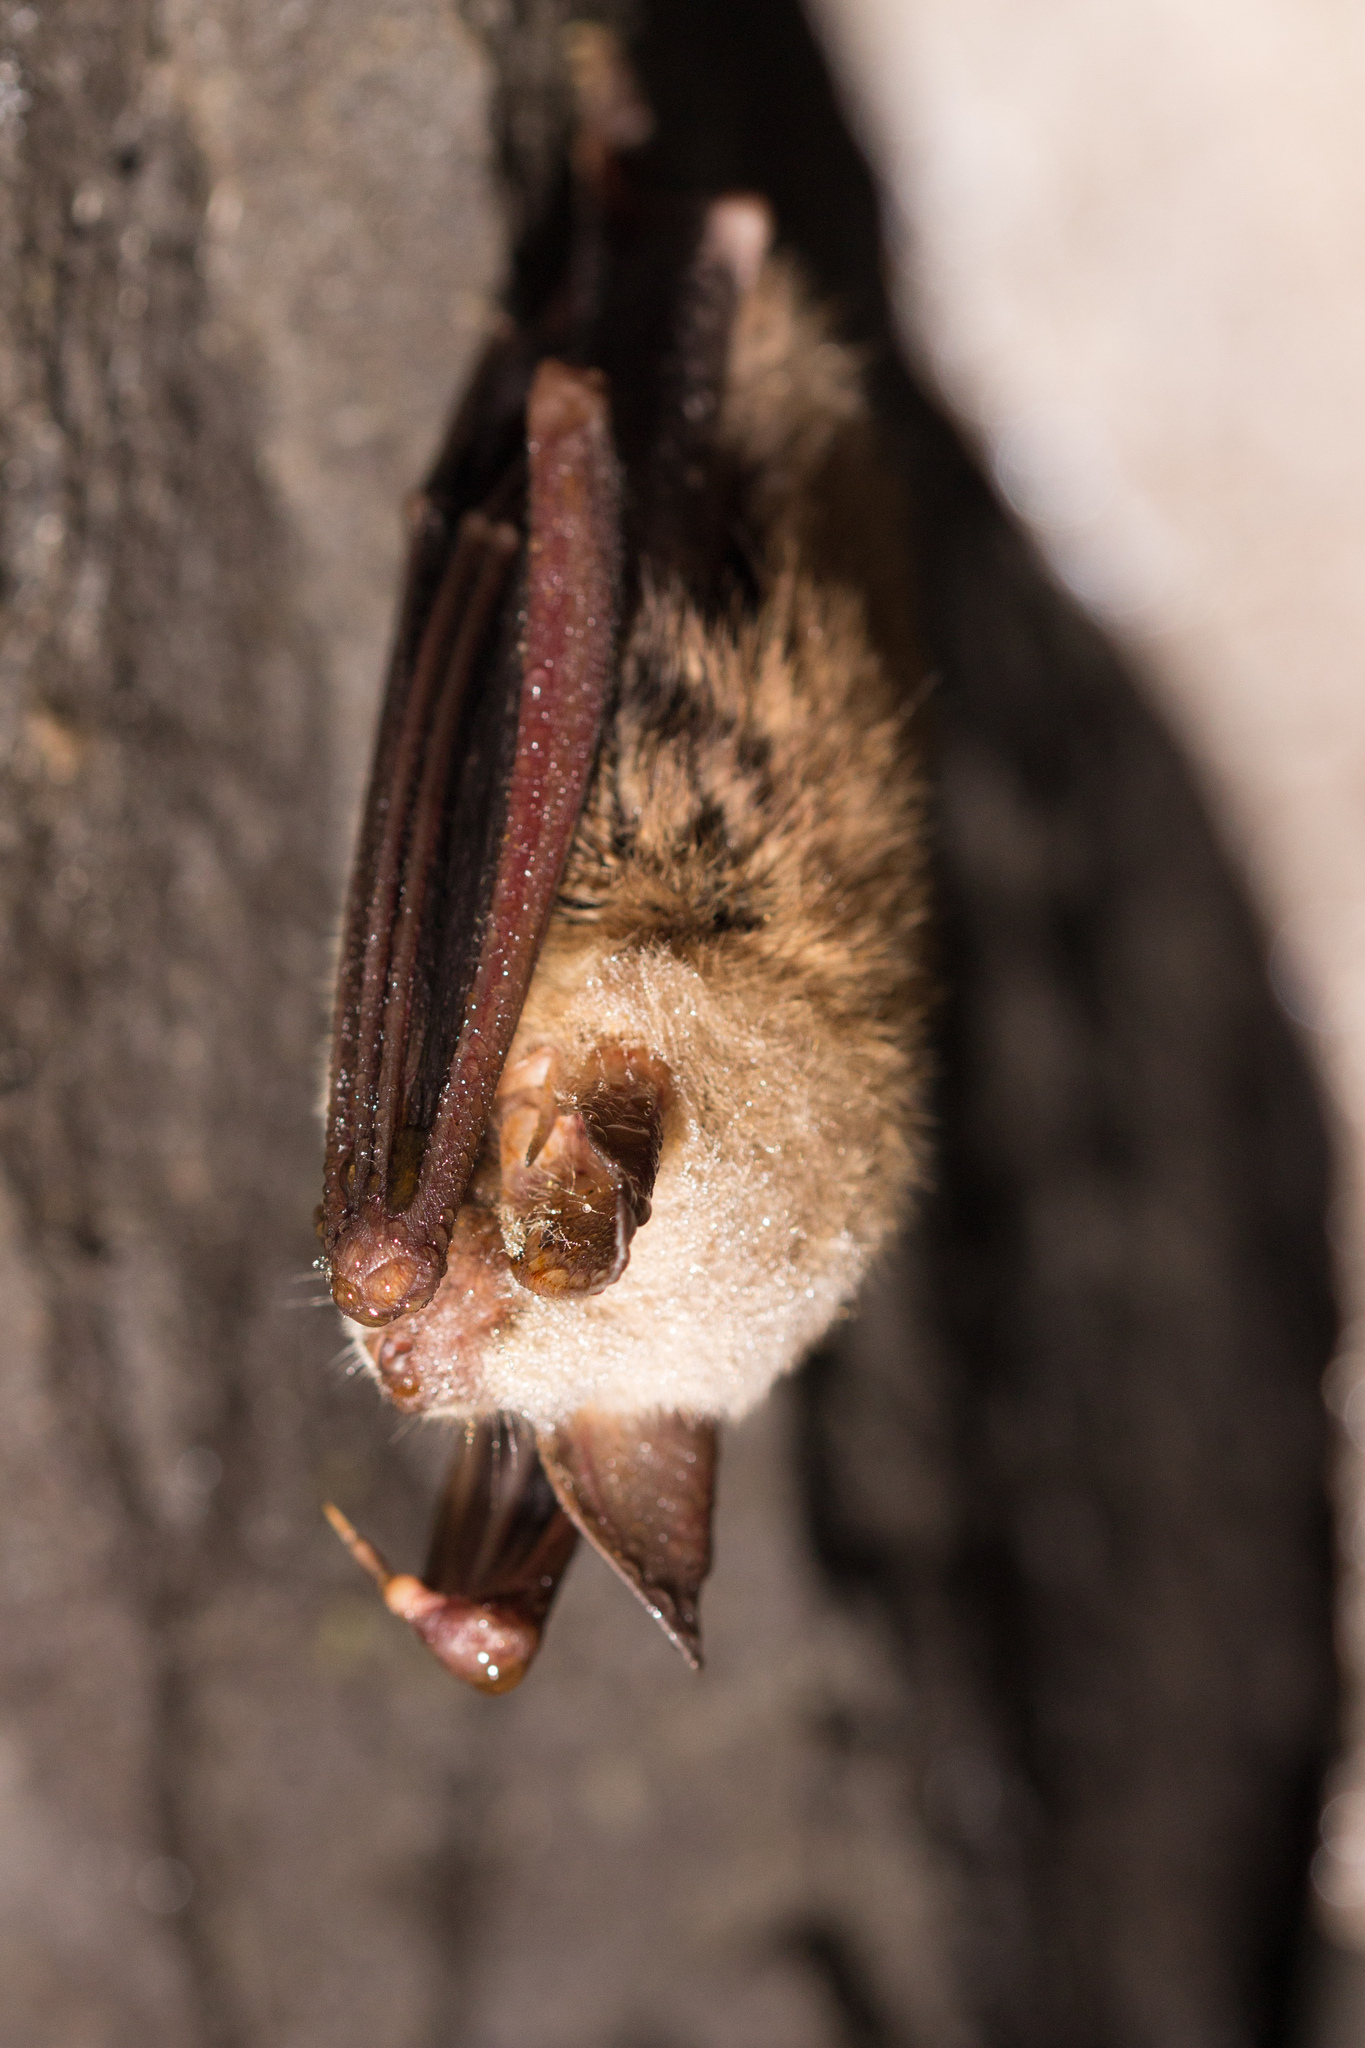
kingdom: Animalia
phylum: Chordata
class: Mammalia
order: Chiroptera
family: Vespertilionidae
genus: Myotis
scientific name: Myotis myotis
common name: Greater mouse-eared bat
